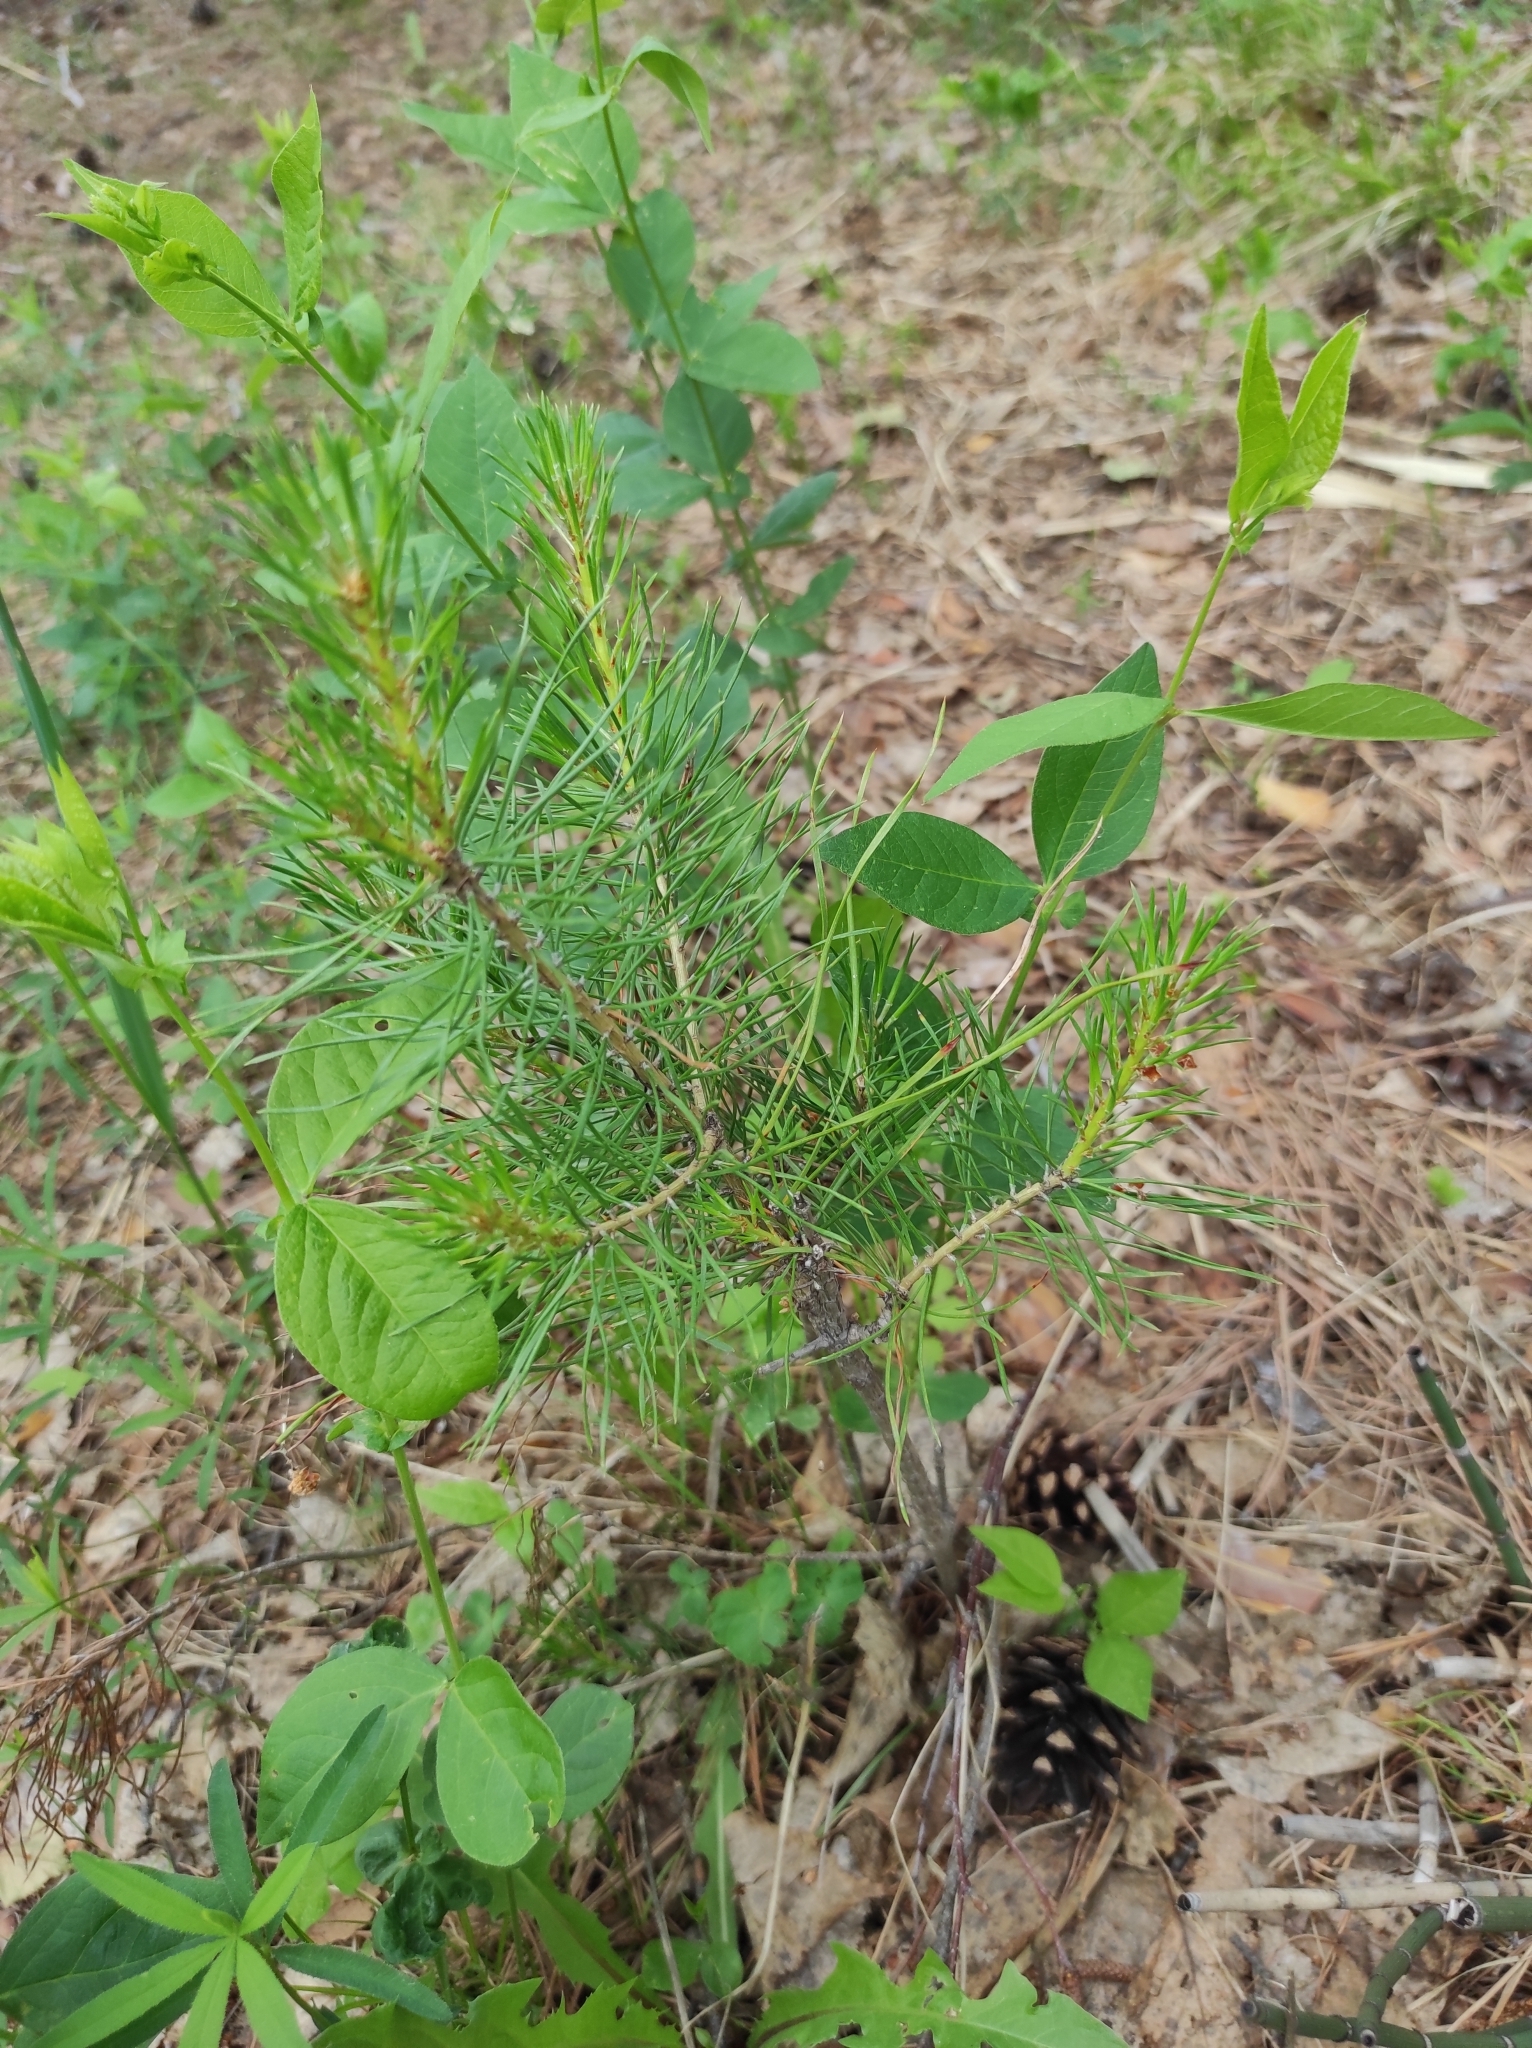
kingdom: Plantae
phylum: Tracheophyta
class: Pinopsida
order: Pinales
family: Pinaceae
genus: Pinus
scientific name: Pinus sylvestris
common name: Scots pine
